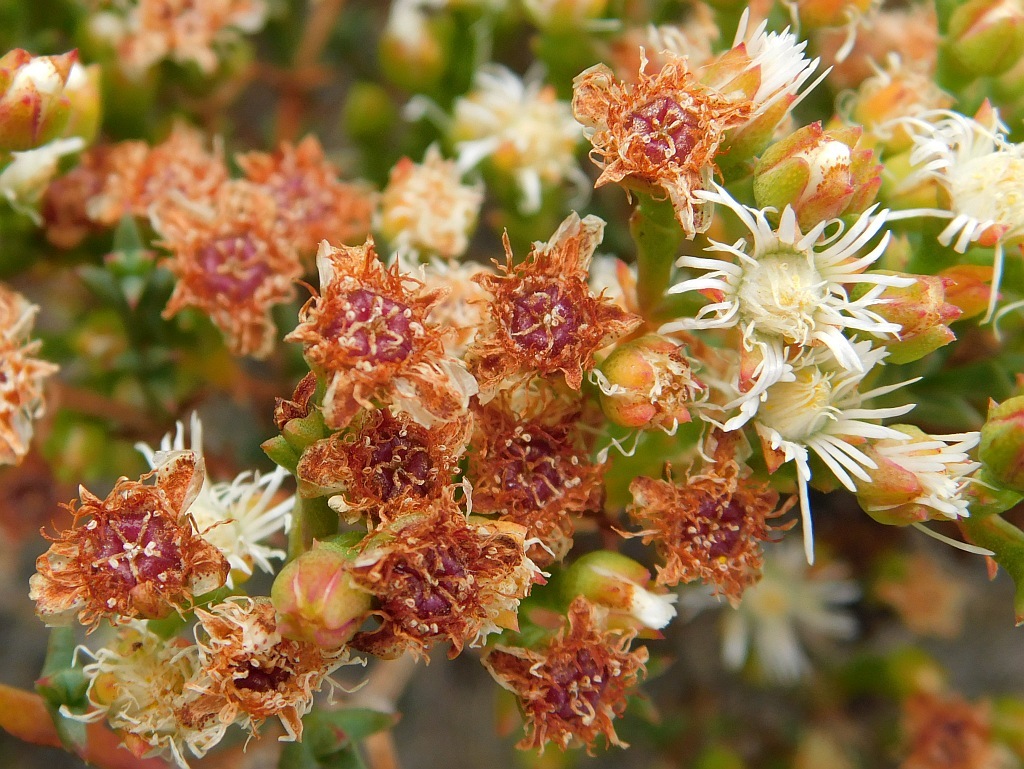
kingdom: Plantae
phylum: Tracheophyta
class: Magnoliopsida
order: Caryophyllales
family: Aizoaceae
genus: Ruschia
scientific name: Ruschia tenella
